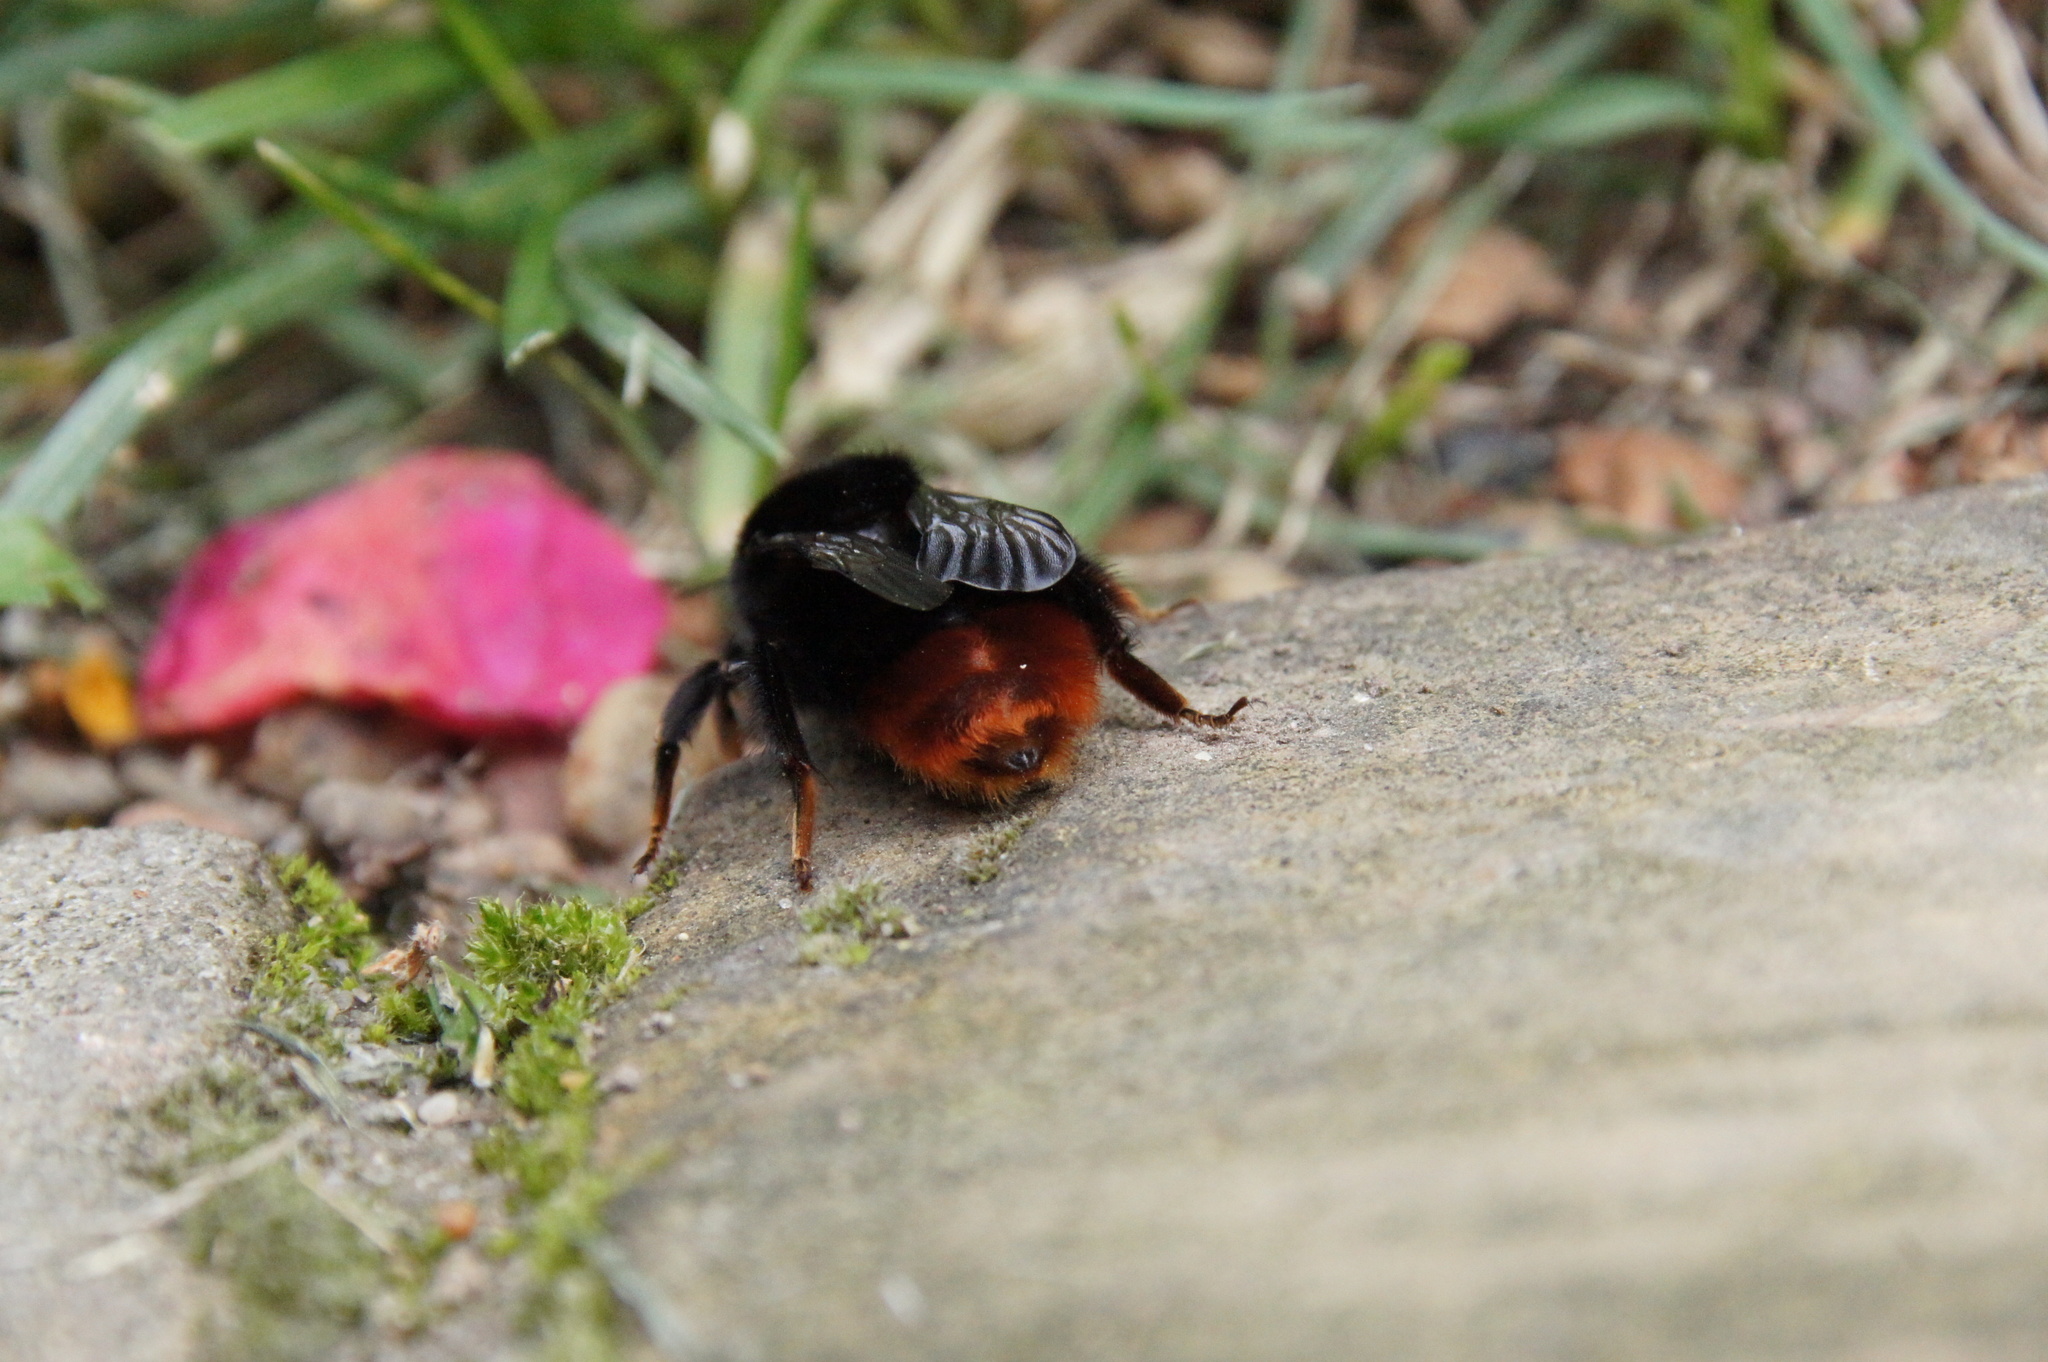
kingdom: Animalia
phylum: Arthropoda
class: Insecta
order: Hymenoptera
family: Apidae
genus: Bombus
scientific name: Bombus lapidarius
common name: Large red-tailed humble-bee
